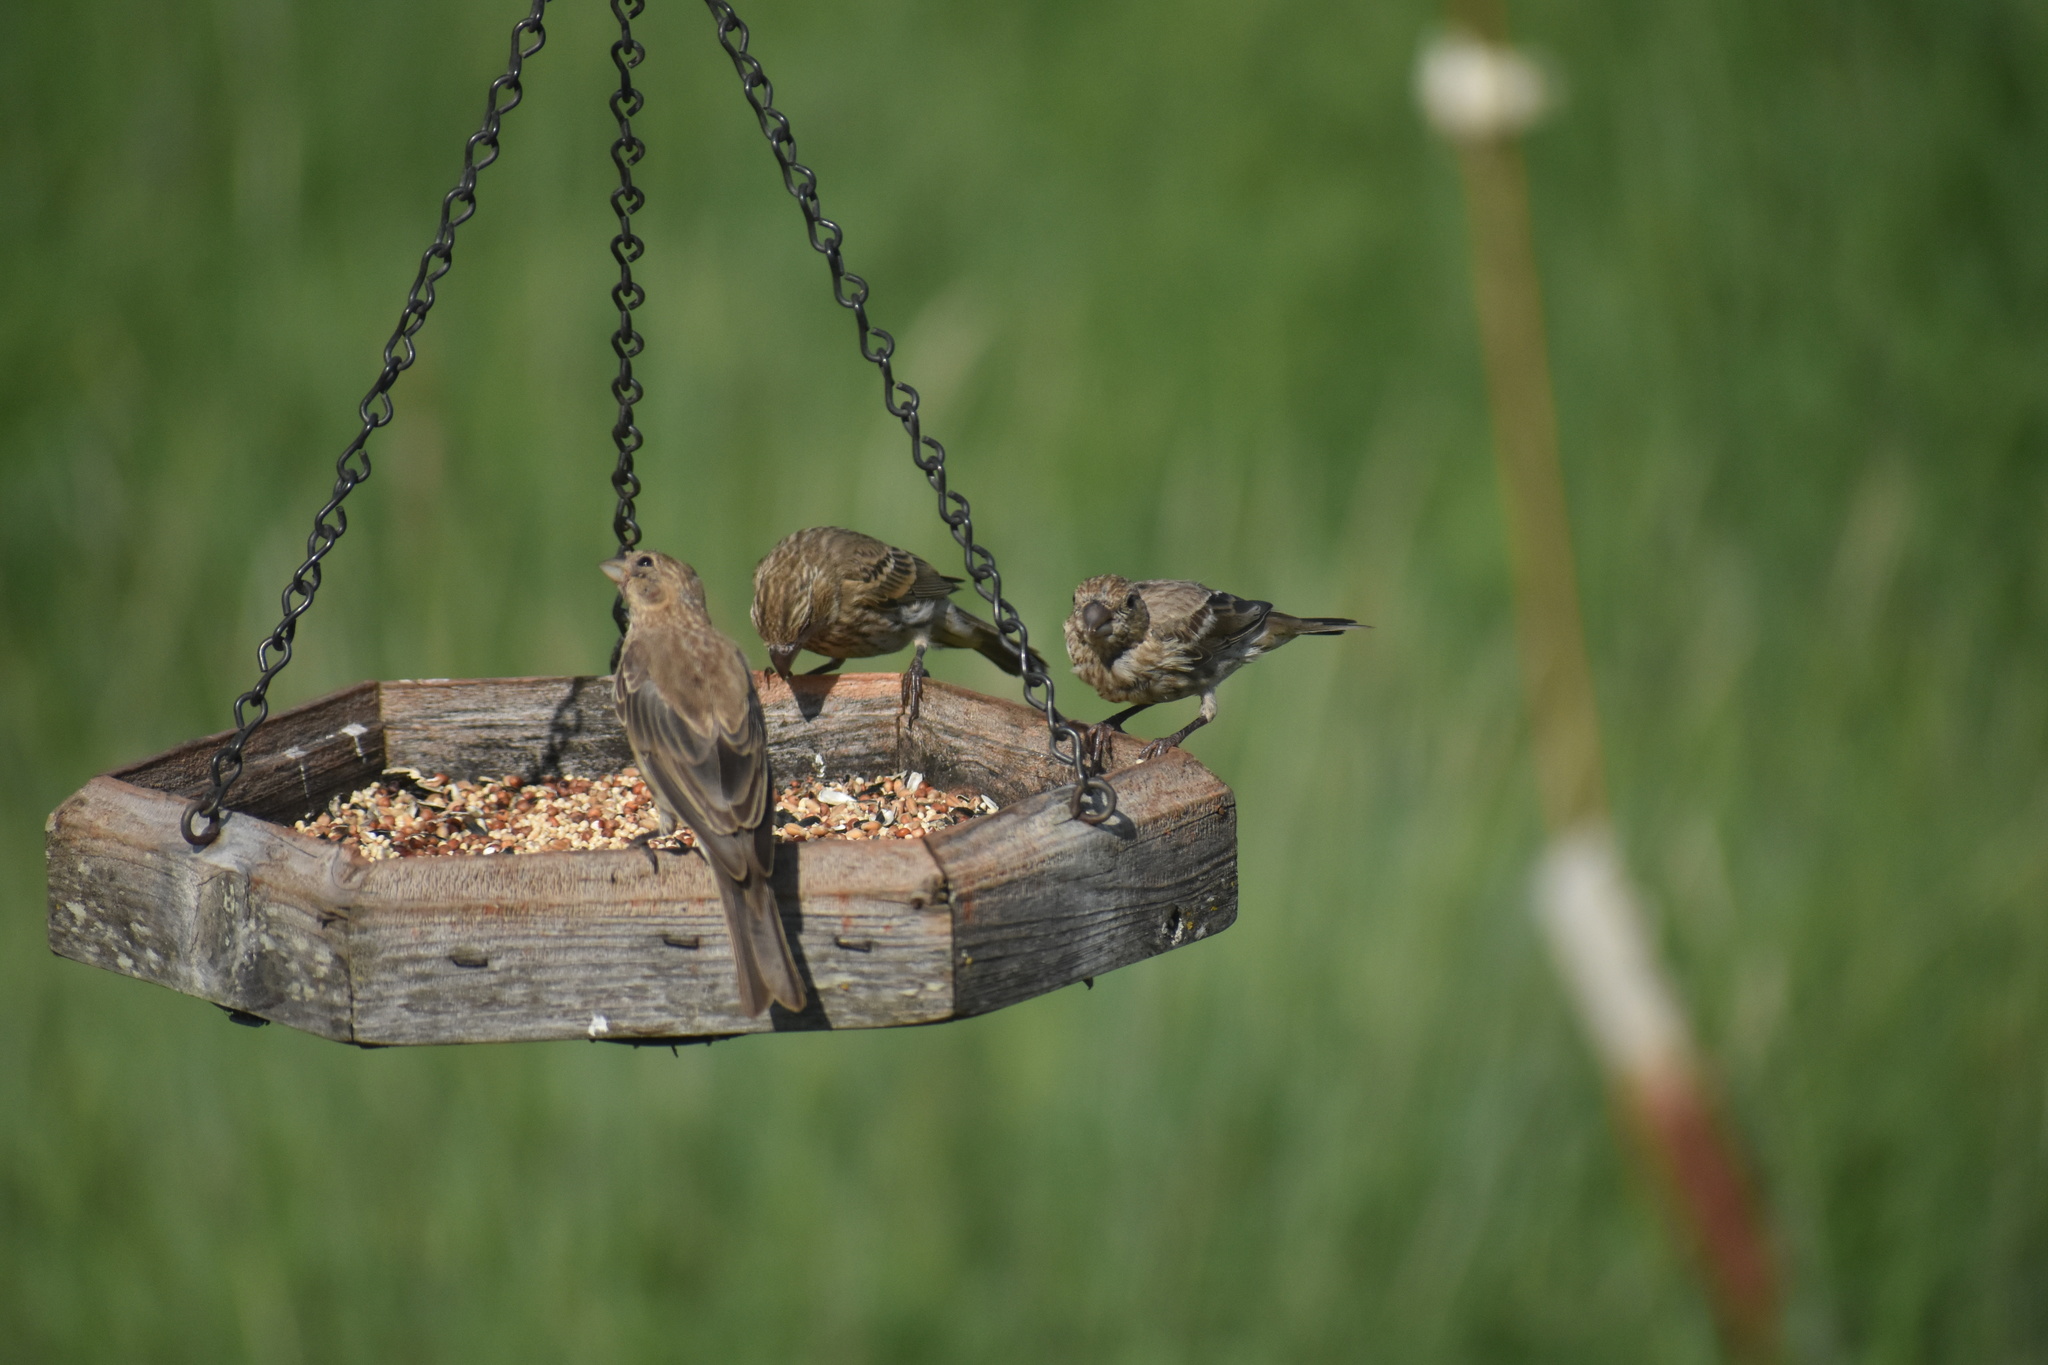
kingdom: Animalia
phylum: Chordata
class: Aves
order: Passeriformes
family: Fringillidae
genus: Haemorhous
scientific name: Haemorhous mexicanus
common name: House finch
